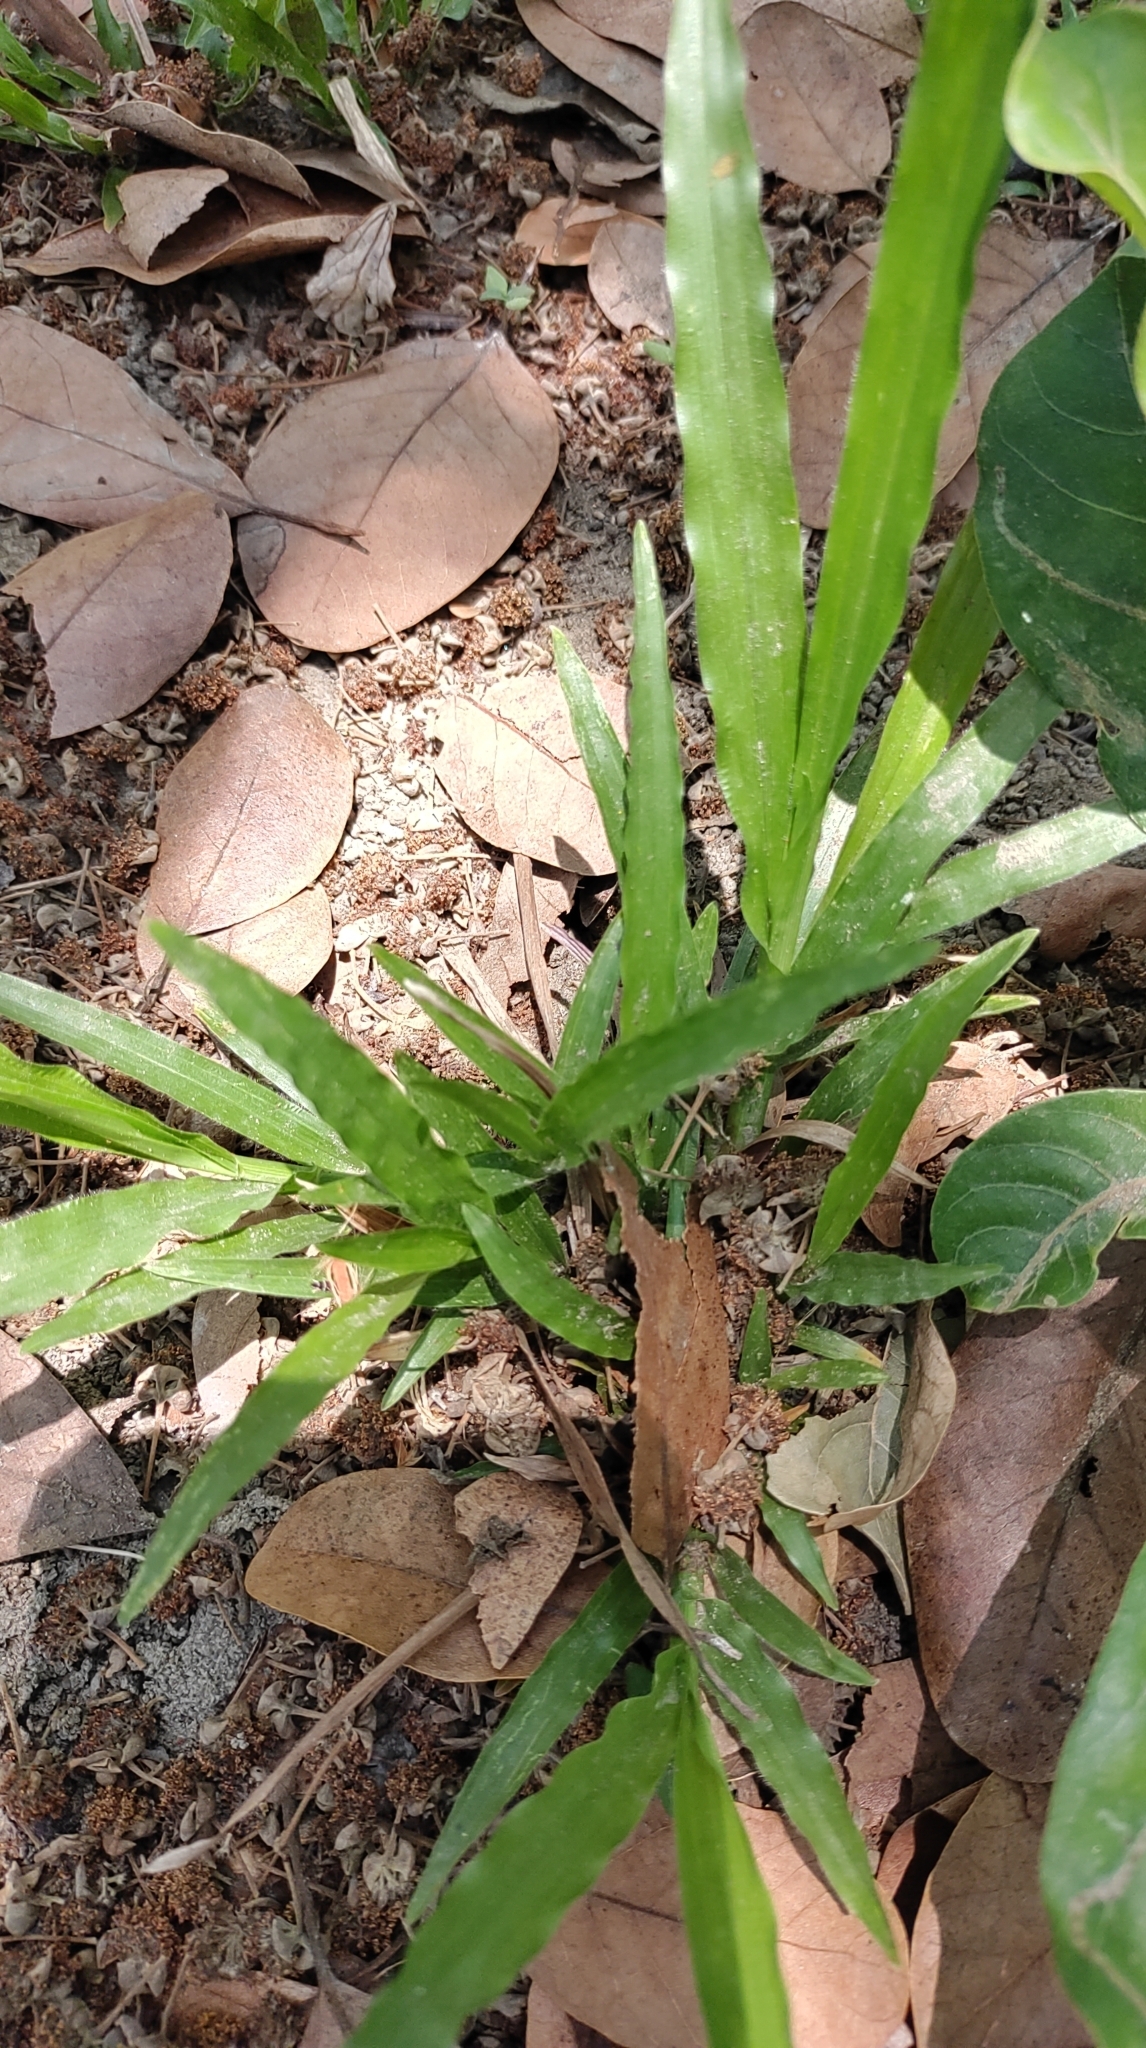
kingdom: Plantae
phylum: Tracheophyta
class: Liliopsida
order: Poales
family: Poaceae
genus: Axonopus
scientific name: Axonopus compressus
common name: American carpet grass
